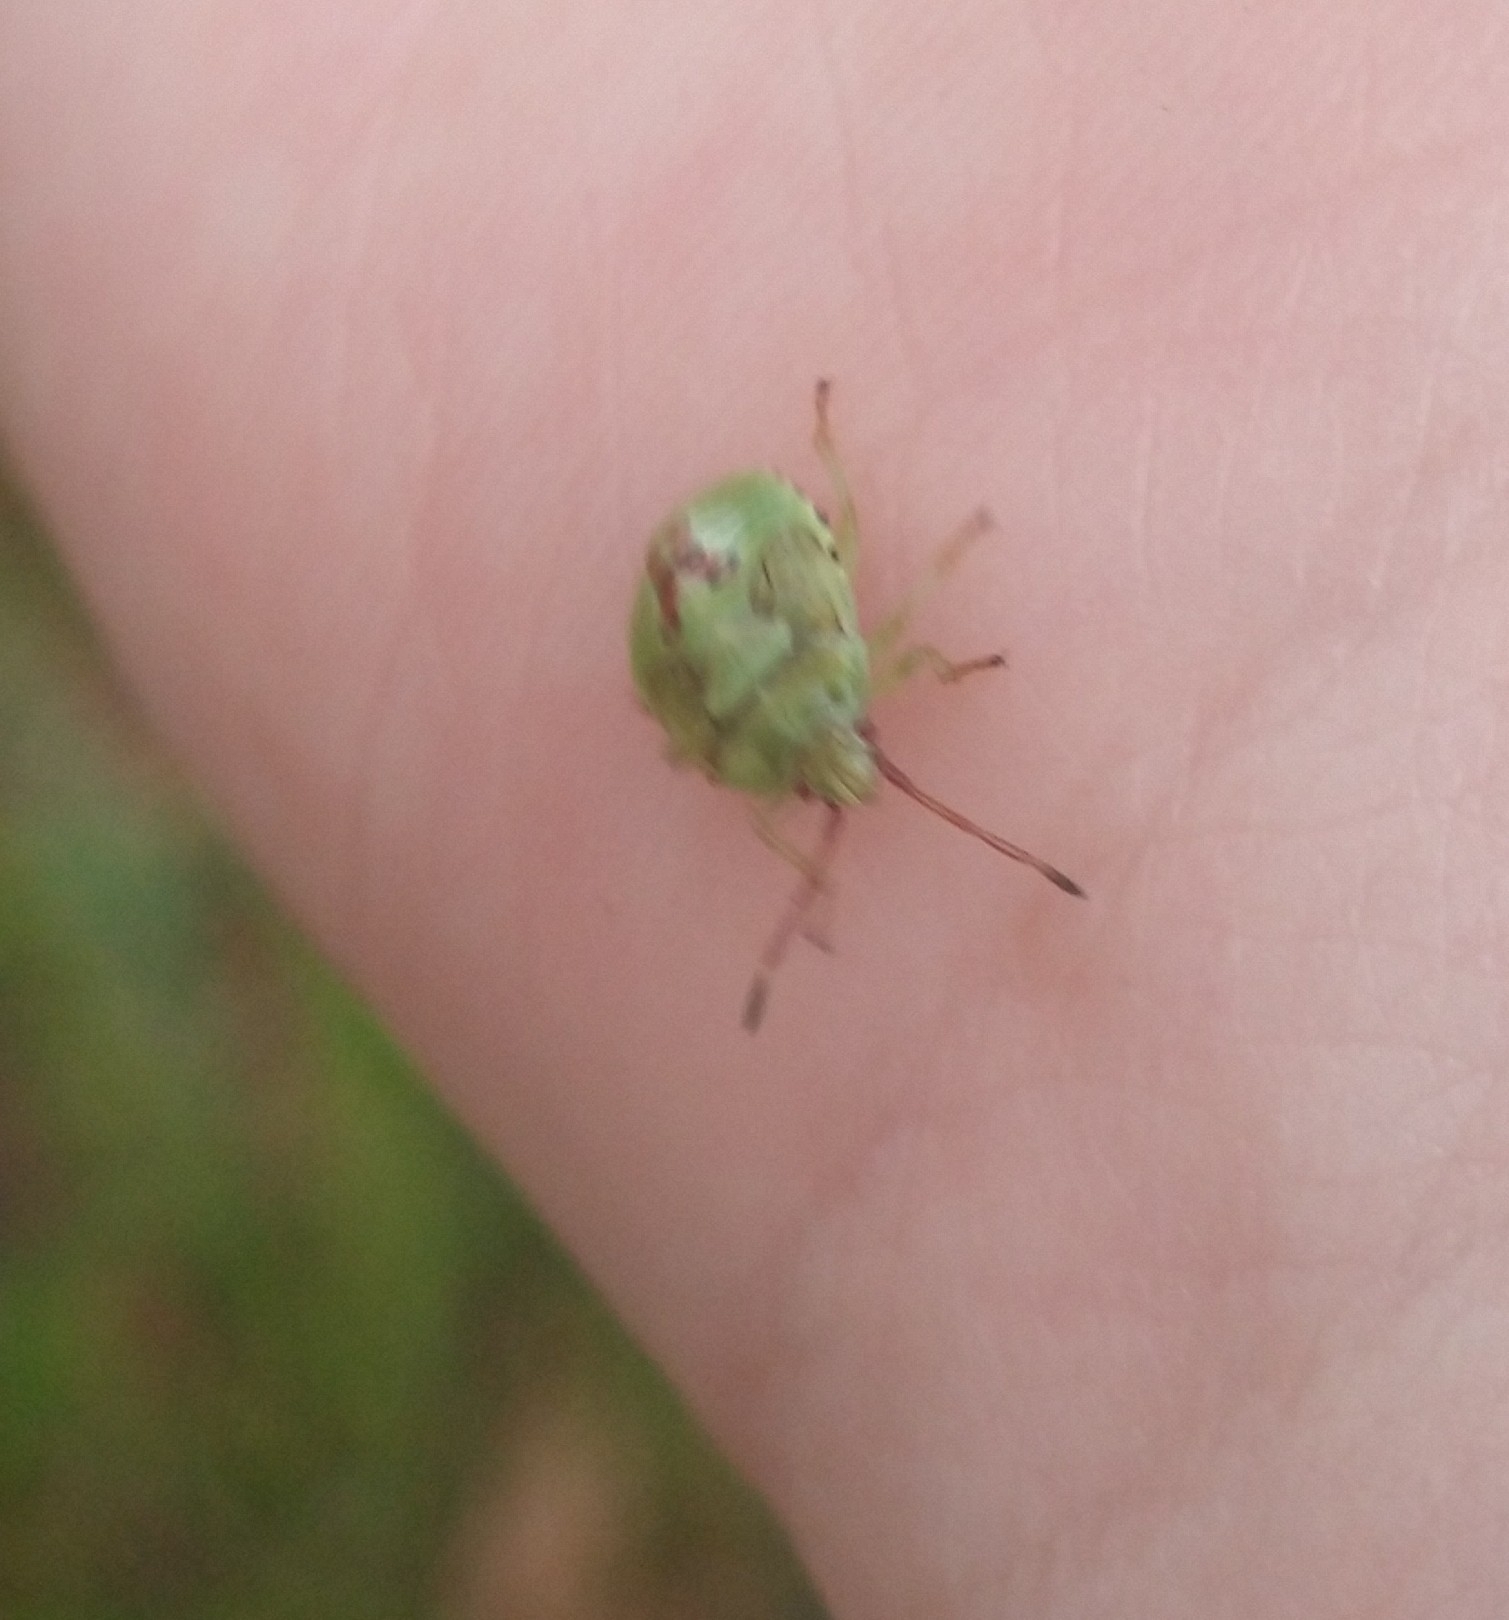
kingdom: Animalia
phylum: Arthropoda
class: Insecta
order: Hemiptera
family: Acanthosomatidae
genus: Elasmostethus
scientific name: Elasmostethus interstinctus
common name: Birch shieldbug
